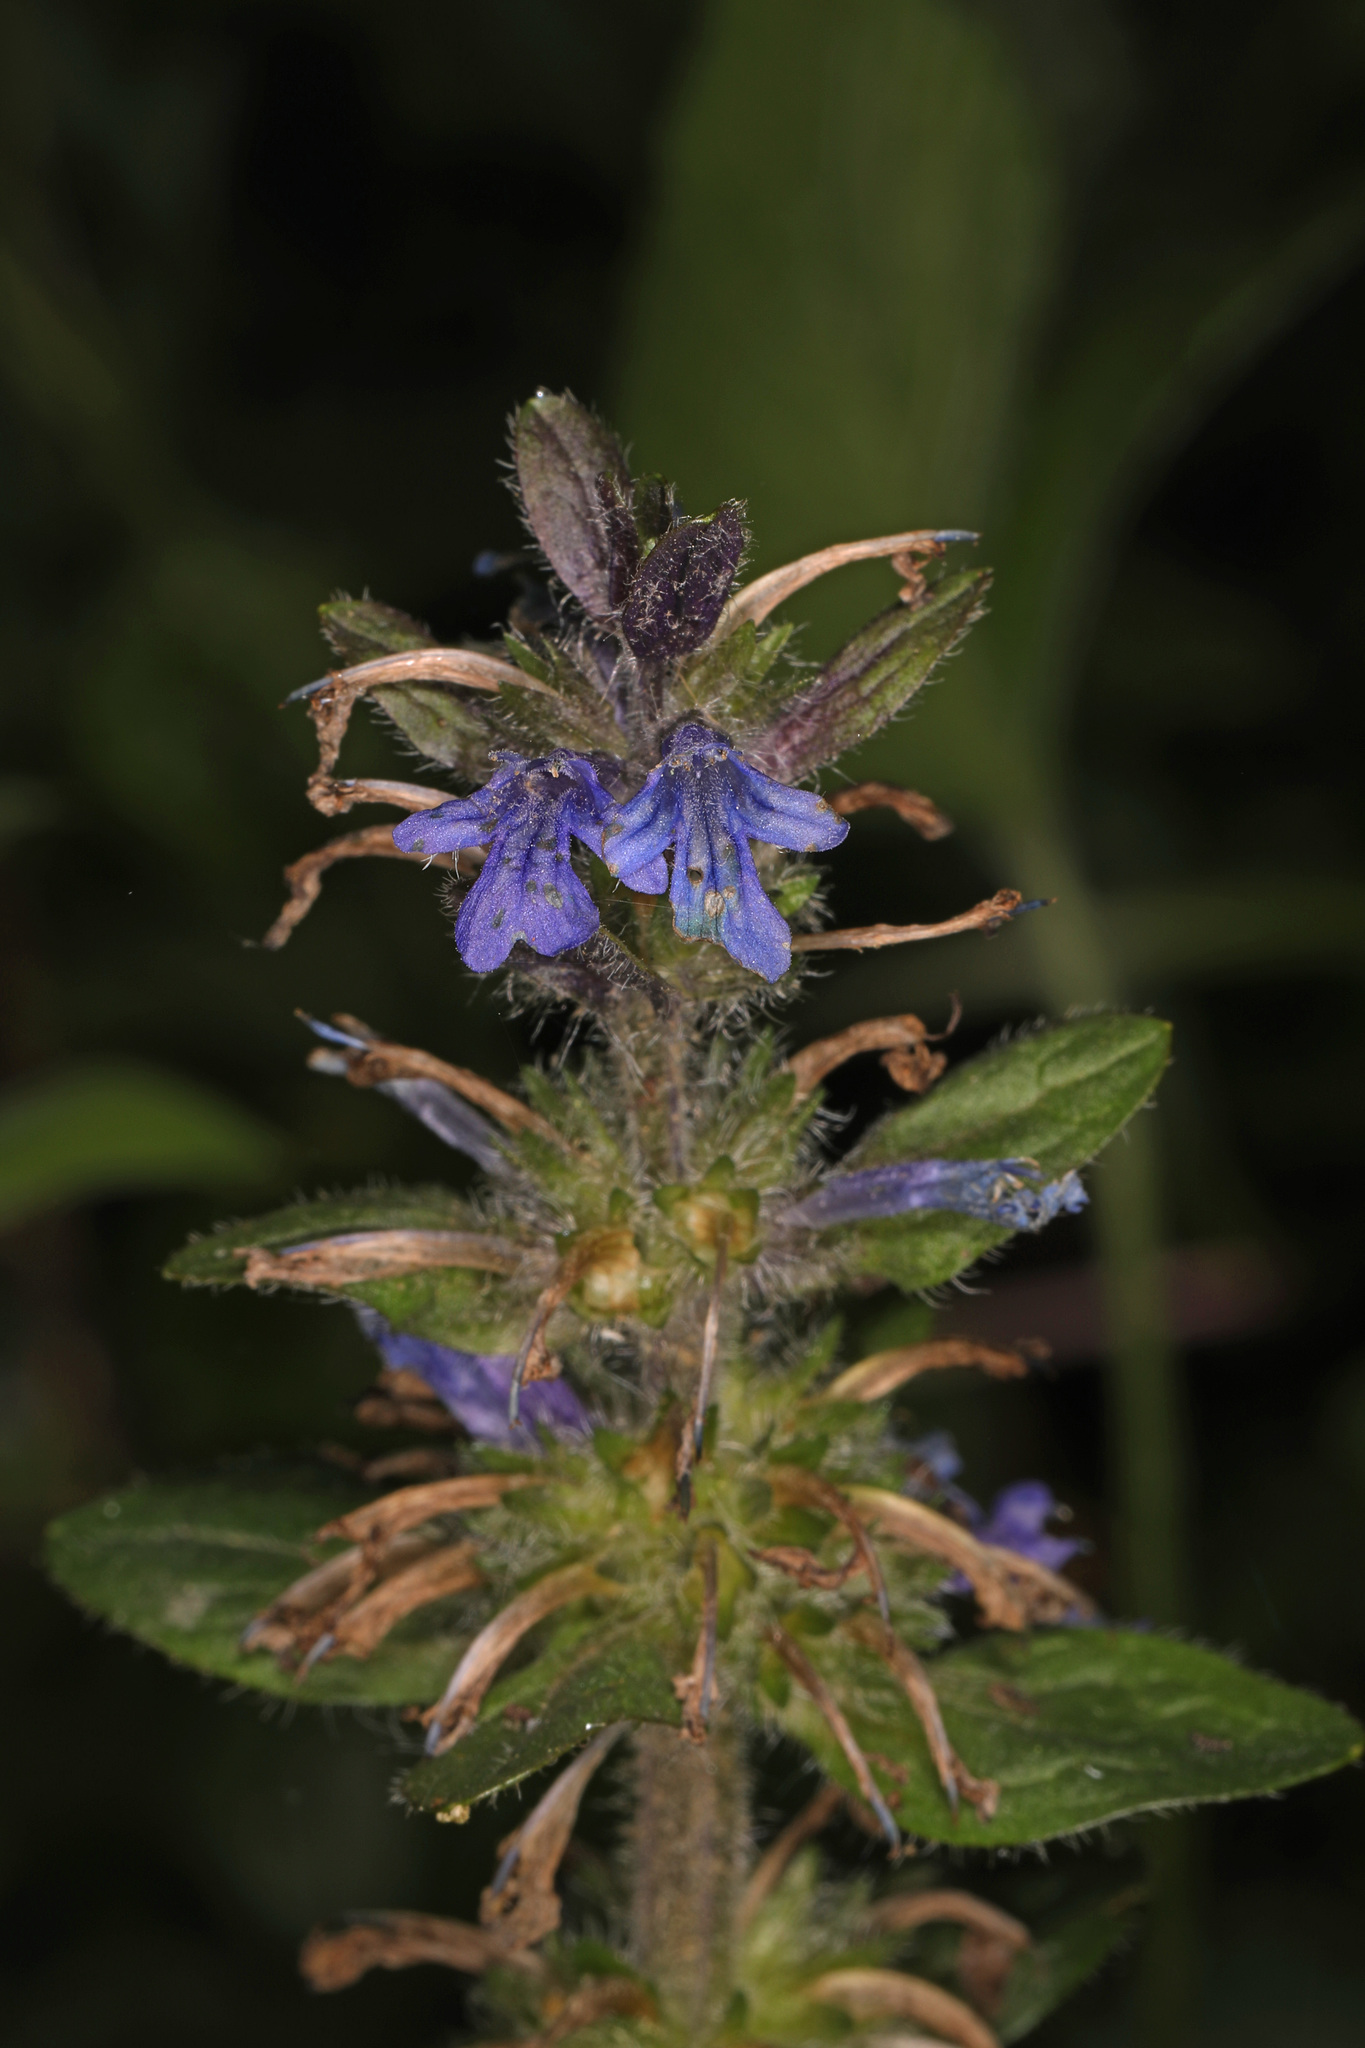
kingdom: Plantae
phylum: Tracheophyta
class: Magnoliopsida
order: Lamiales
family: Lamiaceae
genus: Ajuga
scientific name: Ajuga reptans
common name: Bugle
